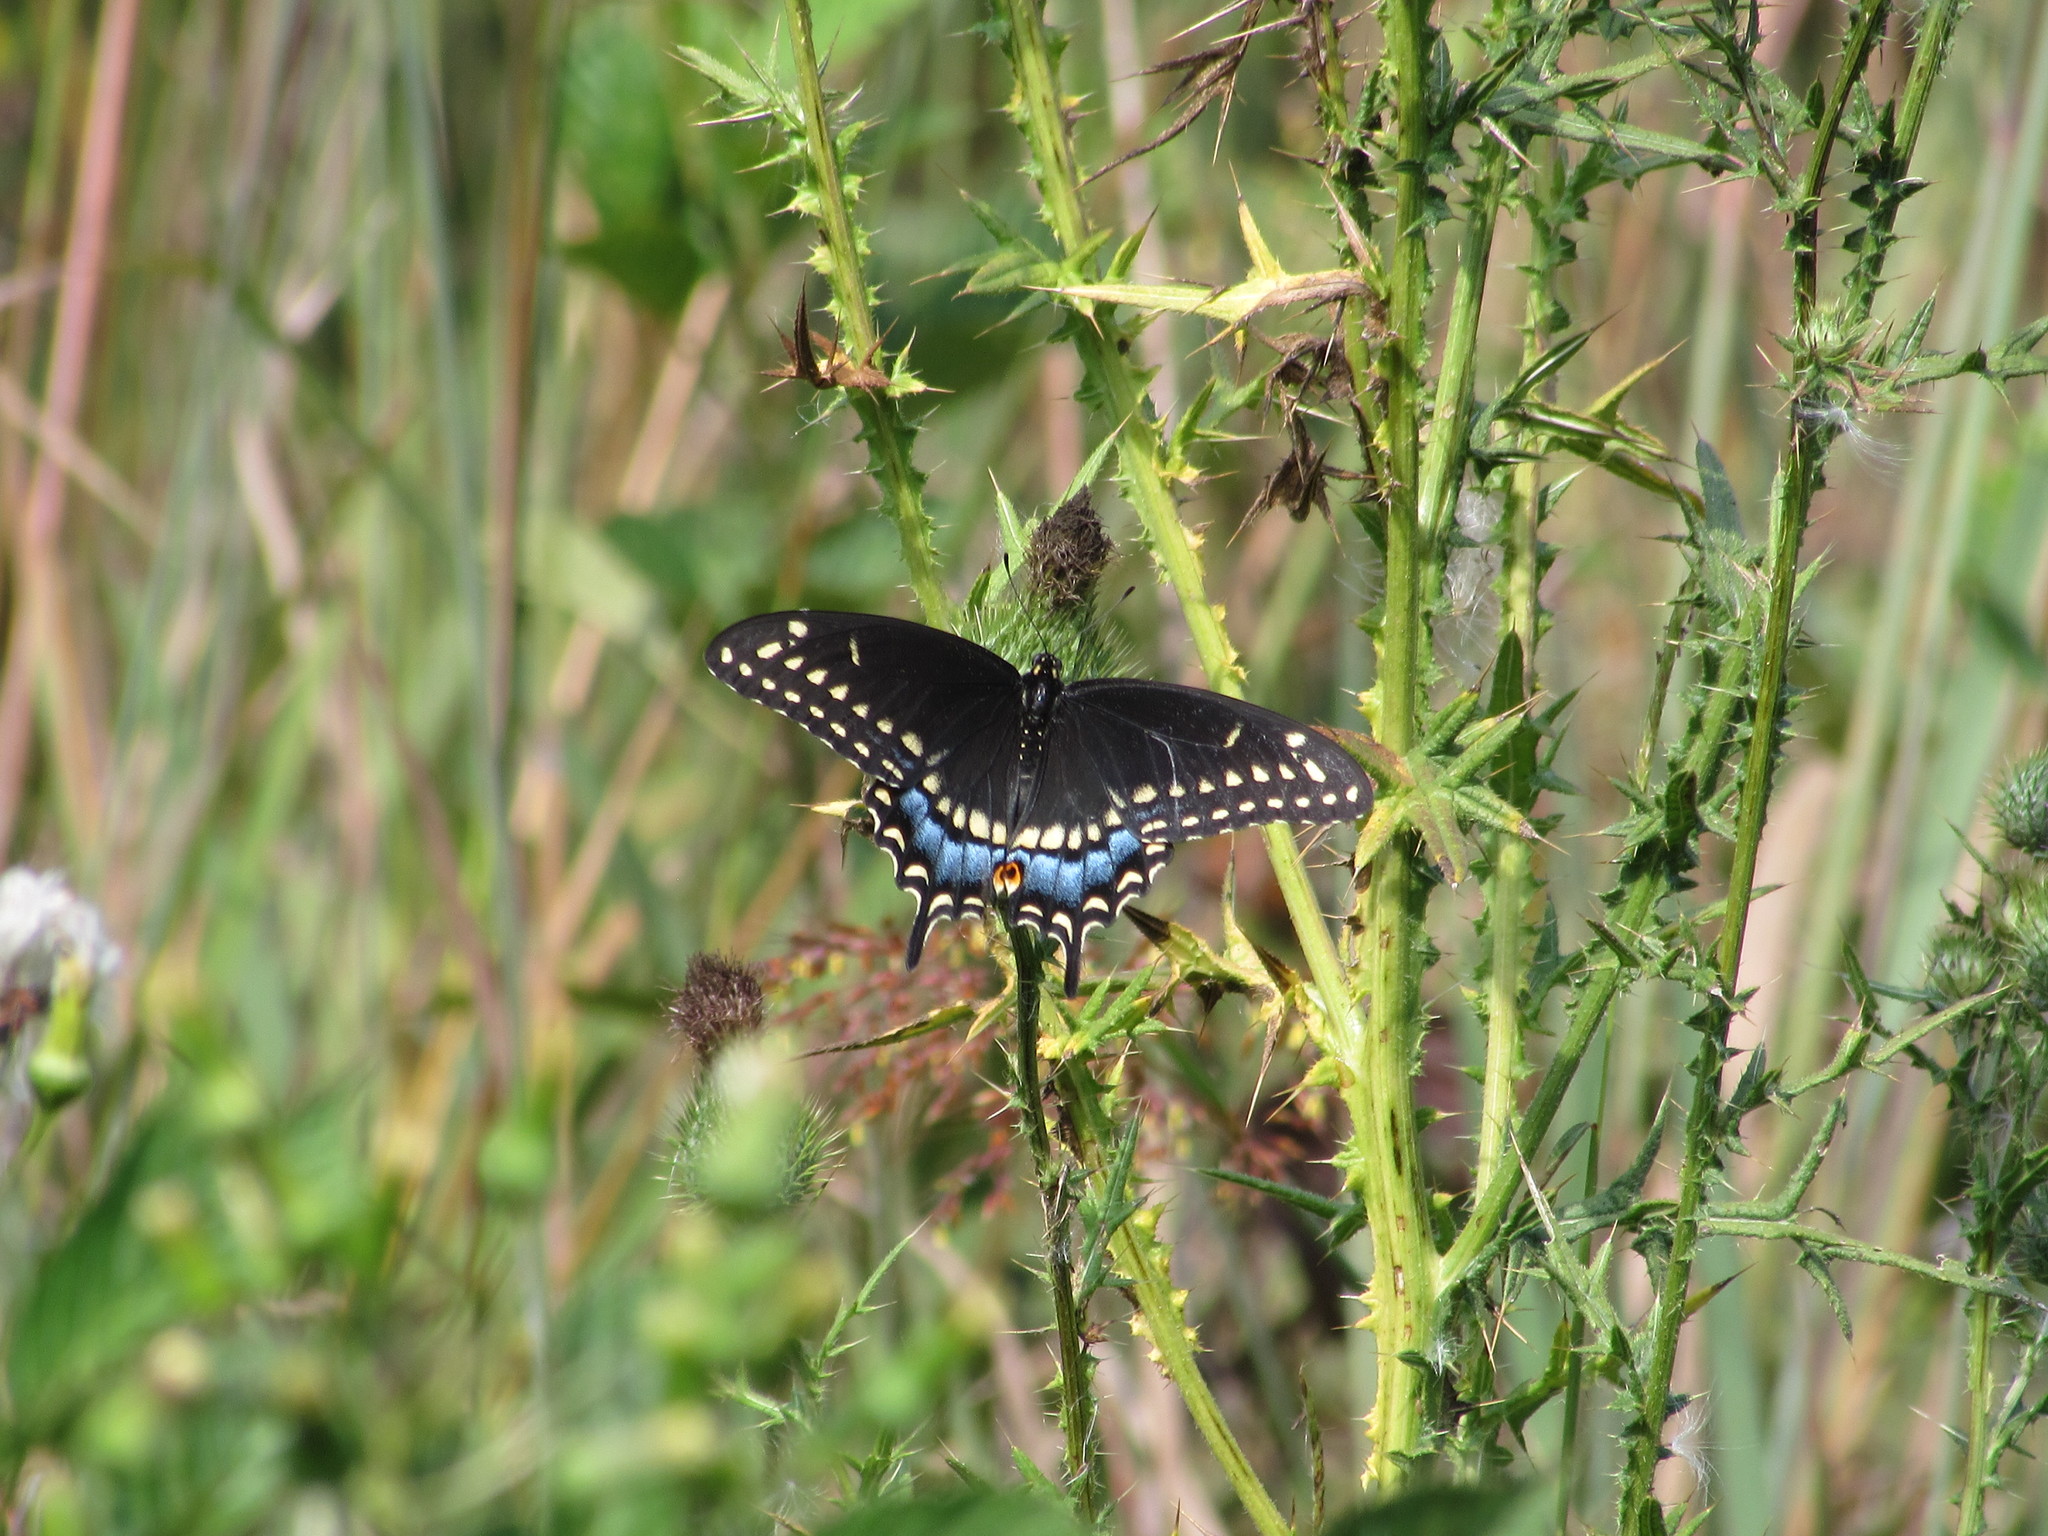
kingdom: Animalia
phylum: Arthropoda
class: Insecta
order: Lepidoptera
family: Papilionidae
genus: Papilio
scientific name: Papilio polyxenes
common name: Black swallowtail
